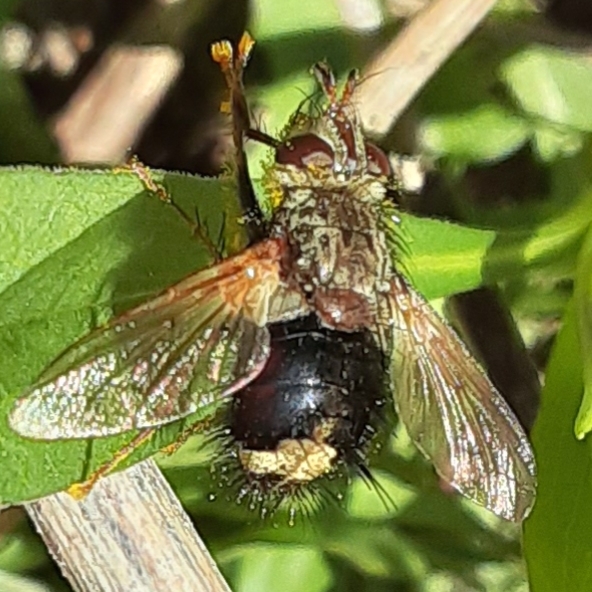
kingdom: Animalia
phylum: Arthropoda
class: Insecta
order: Diptera
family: Tachinidae
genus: Epalpus
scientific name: Epalpus signifer
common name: Early tachinid fly
